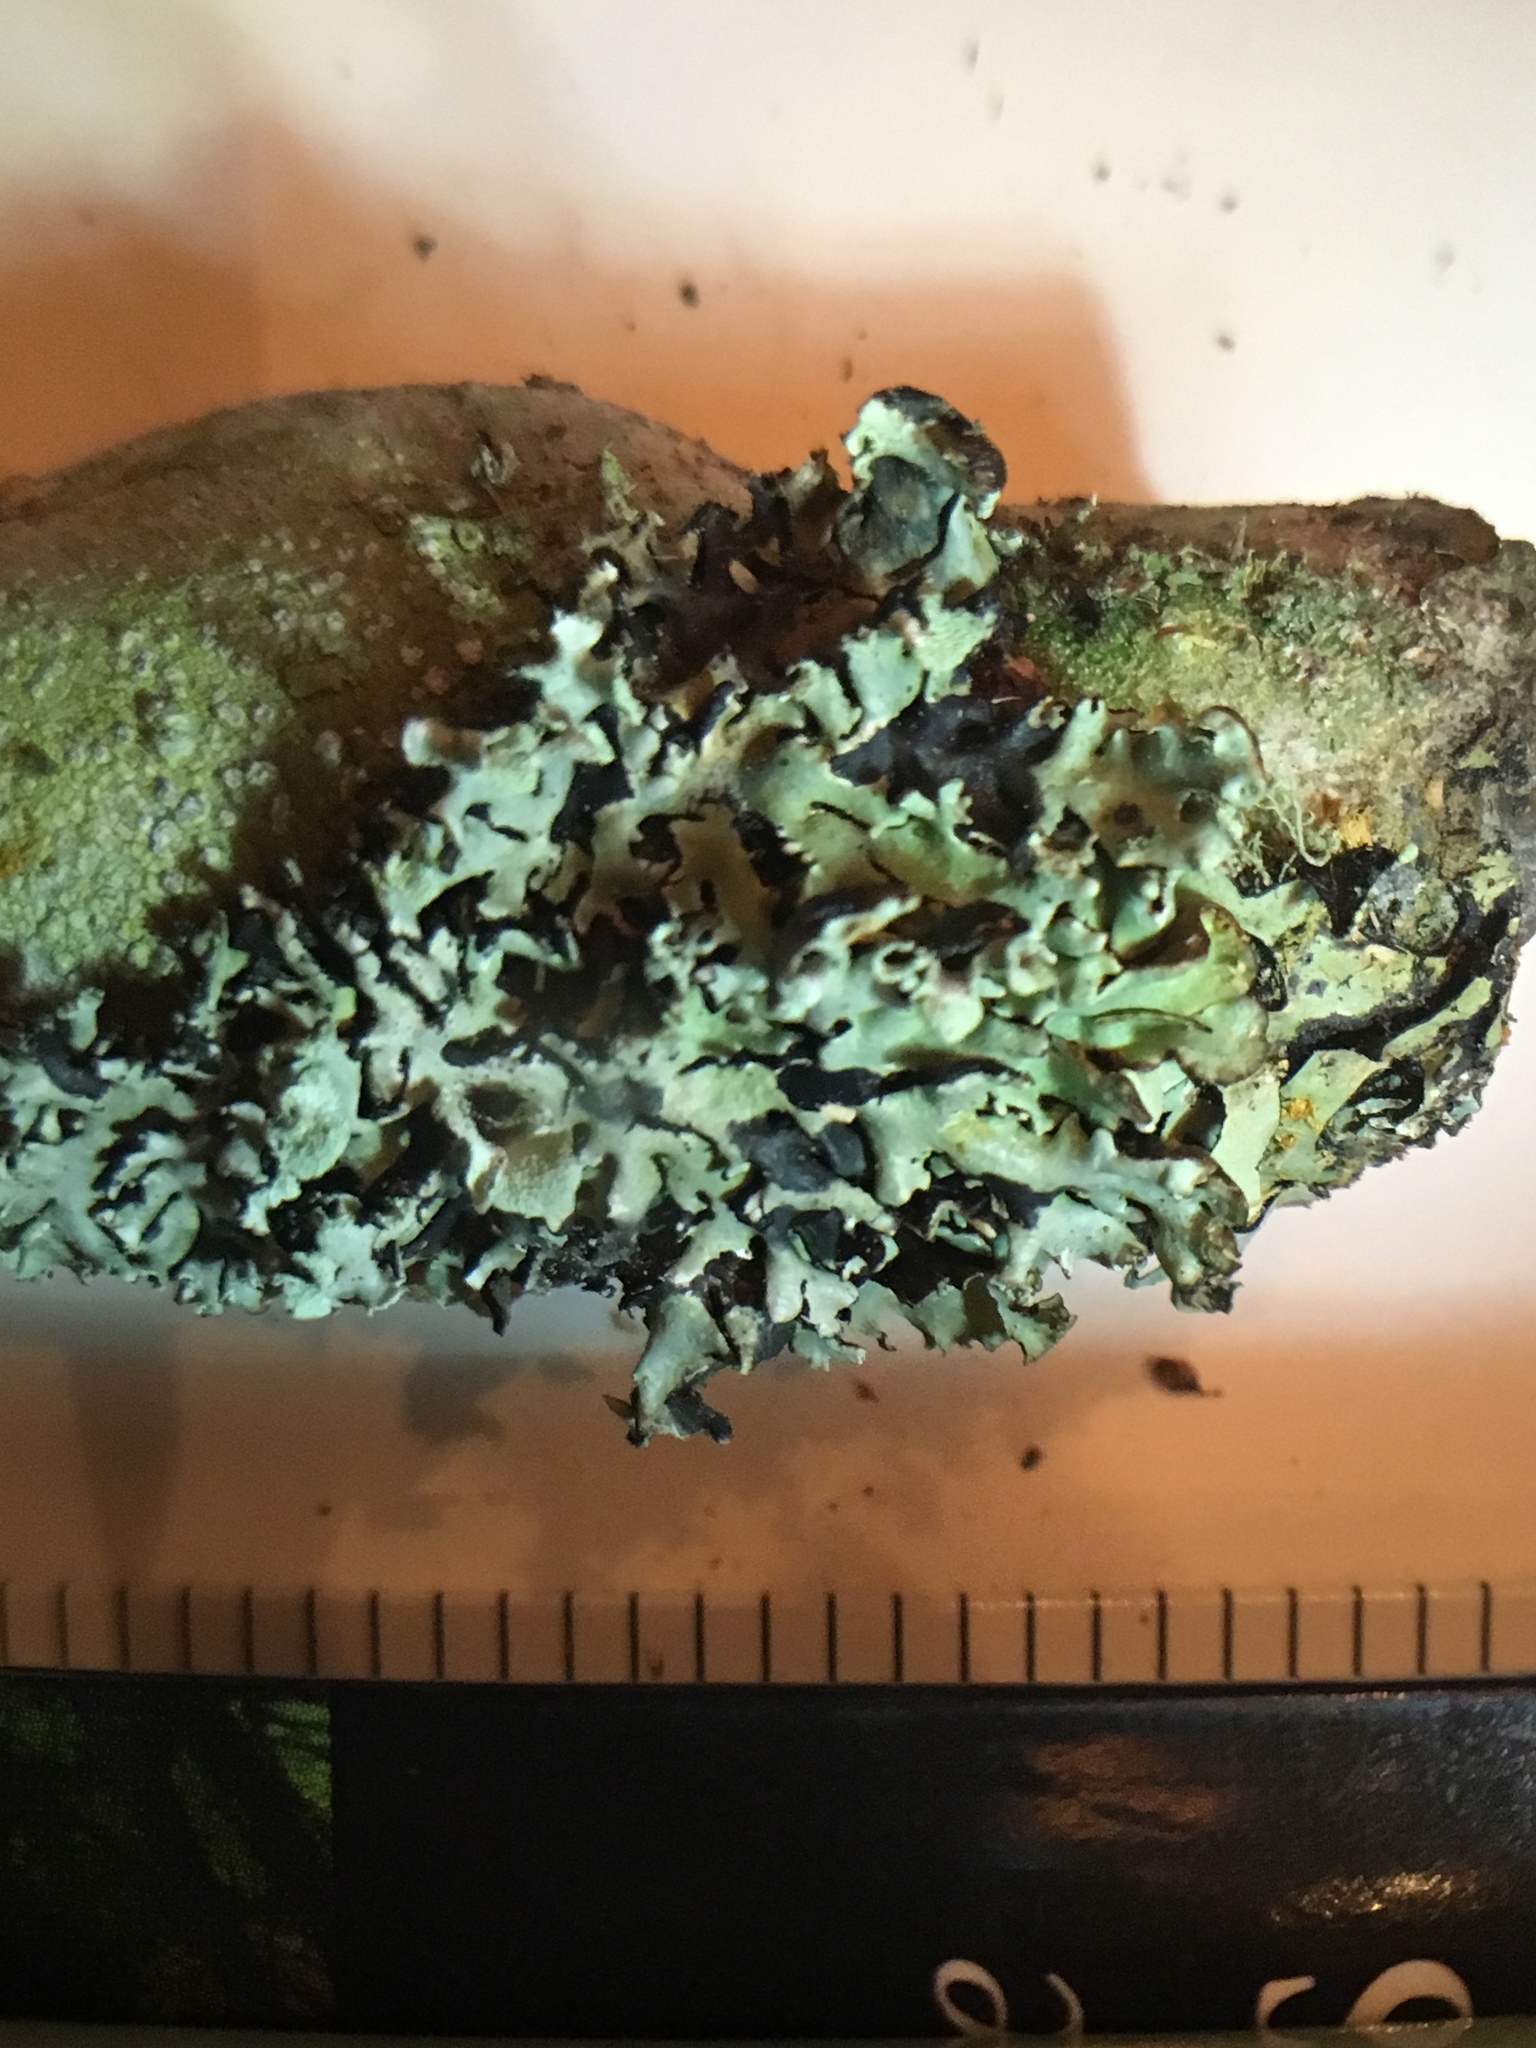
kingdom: Fungi
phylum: Ascomycota
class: Lecanoromycetes
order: Lecanorales
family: Parmeliaceae
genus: Hypogymnia
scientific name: Hypogymnia physodes
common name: Dark crottle
